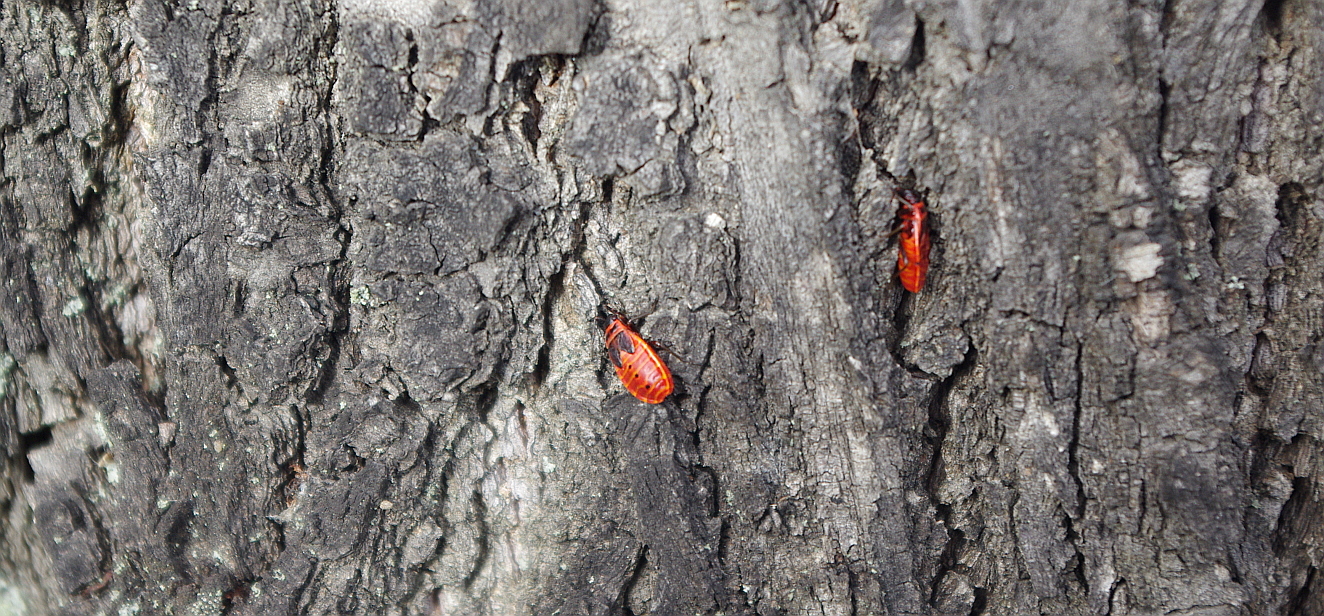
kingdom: Animalia
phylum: Arthropoda
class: Insecta
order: Hemiptera
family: Pyrrhocoridae
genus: Pyrrhocoris
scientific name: Pyrrhocoris apterus
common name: Firebug
